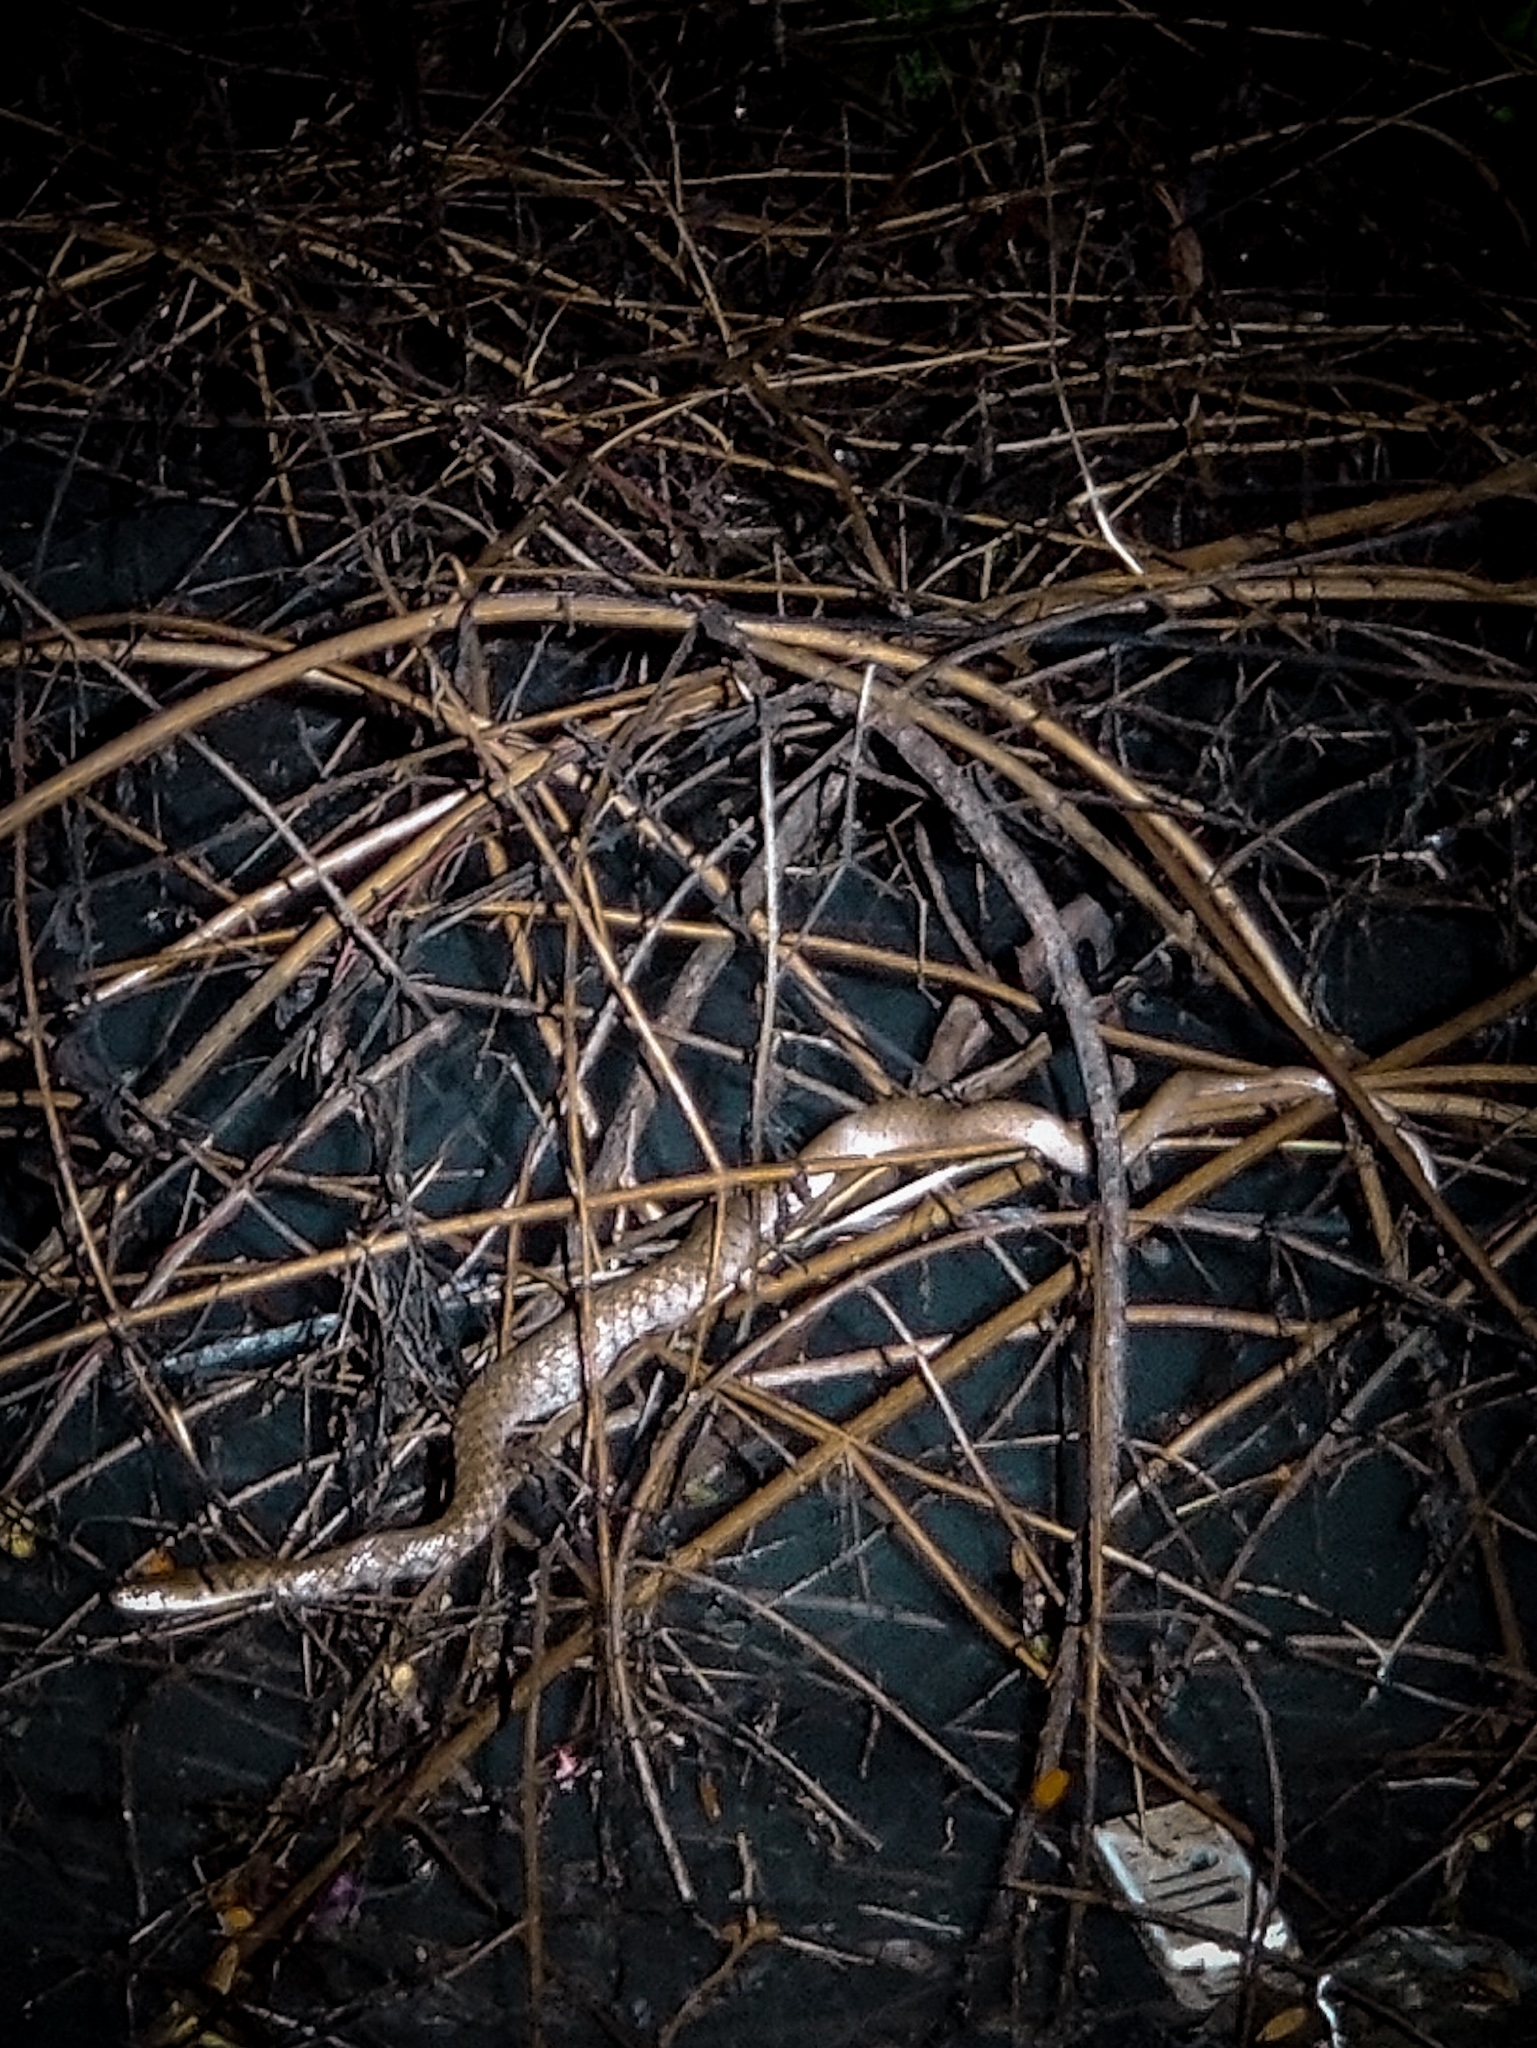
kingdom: Animalia
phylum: Chordata
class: Squamata
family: Colubridae
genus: Fowlea
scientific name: Fowlea piscator
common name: Asiatic water snake
